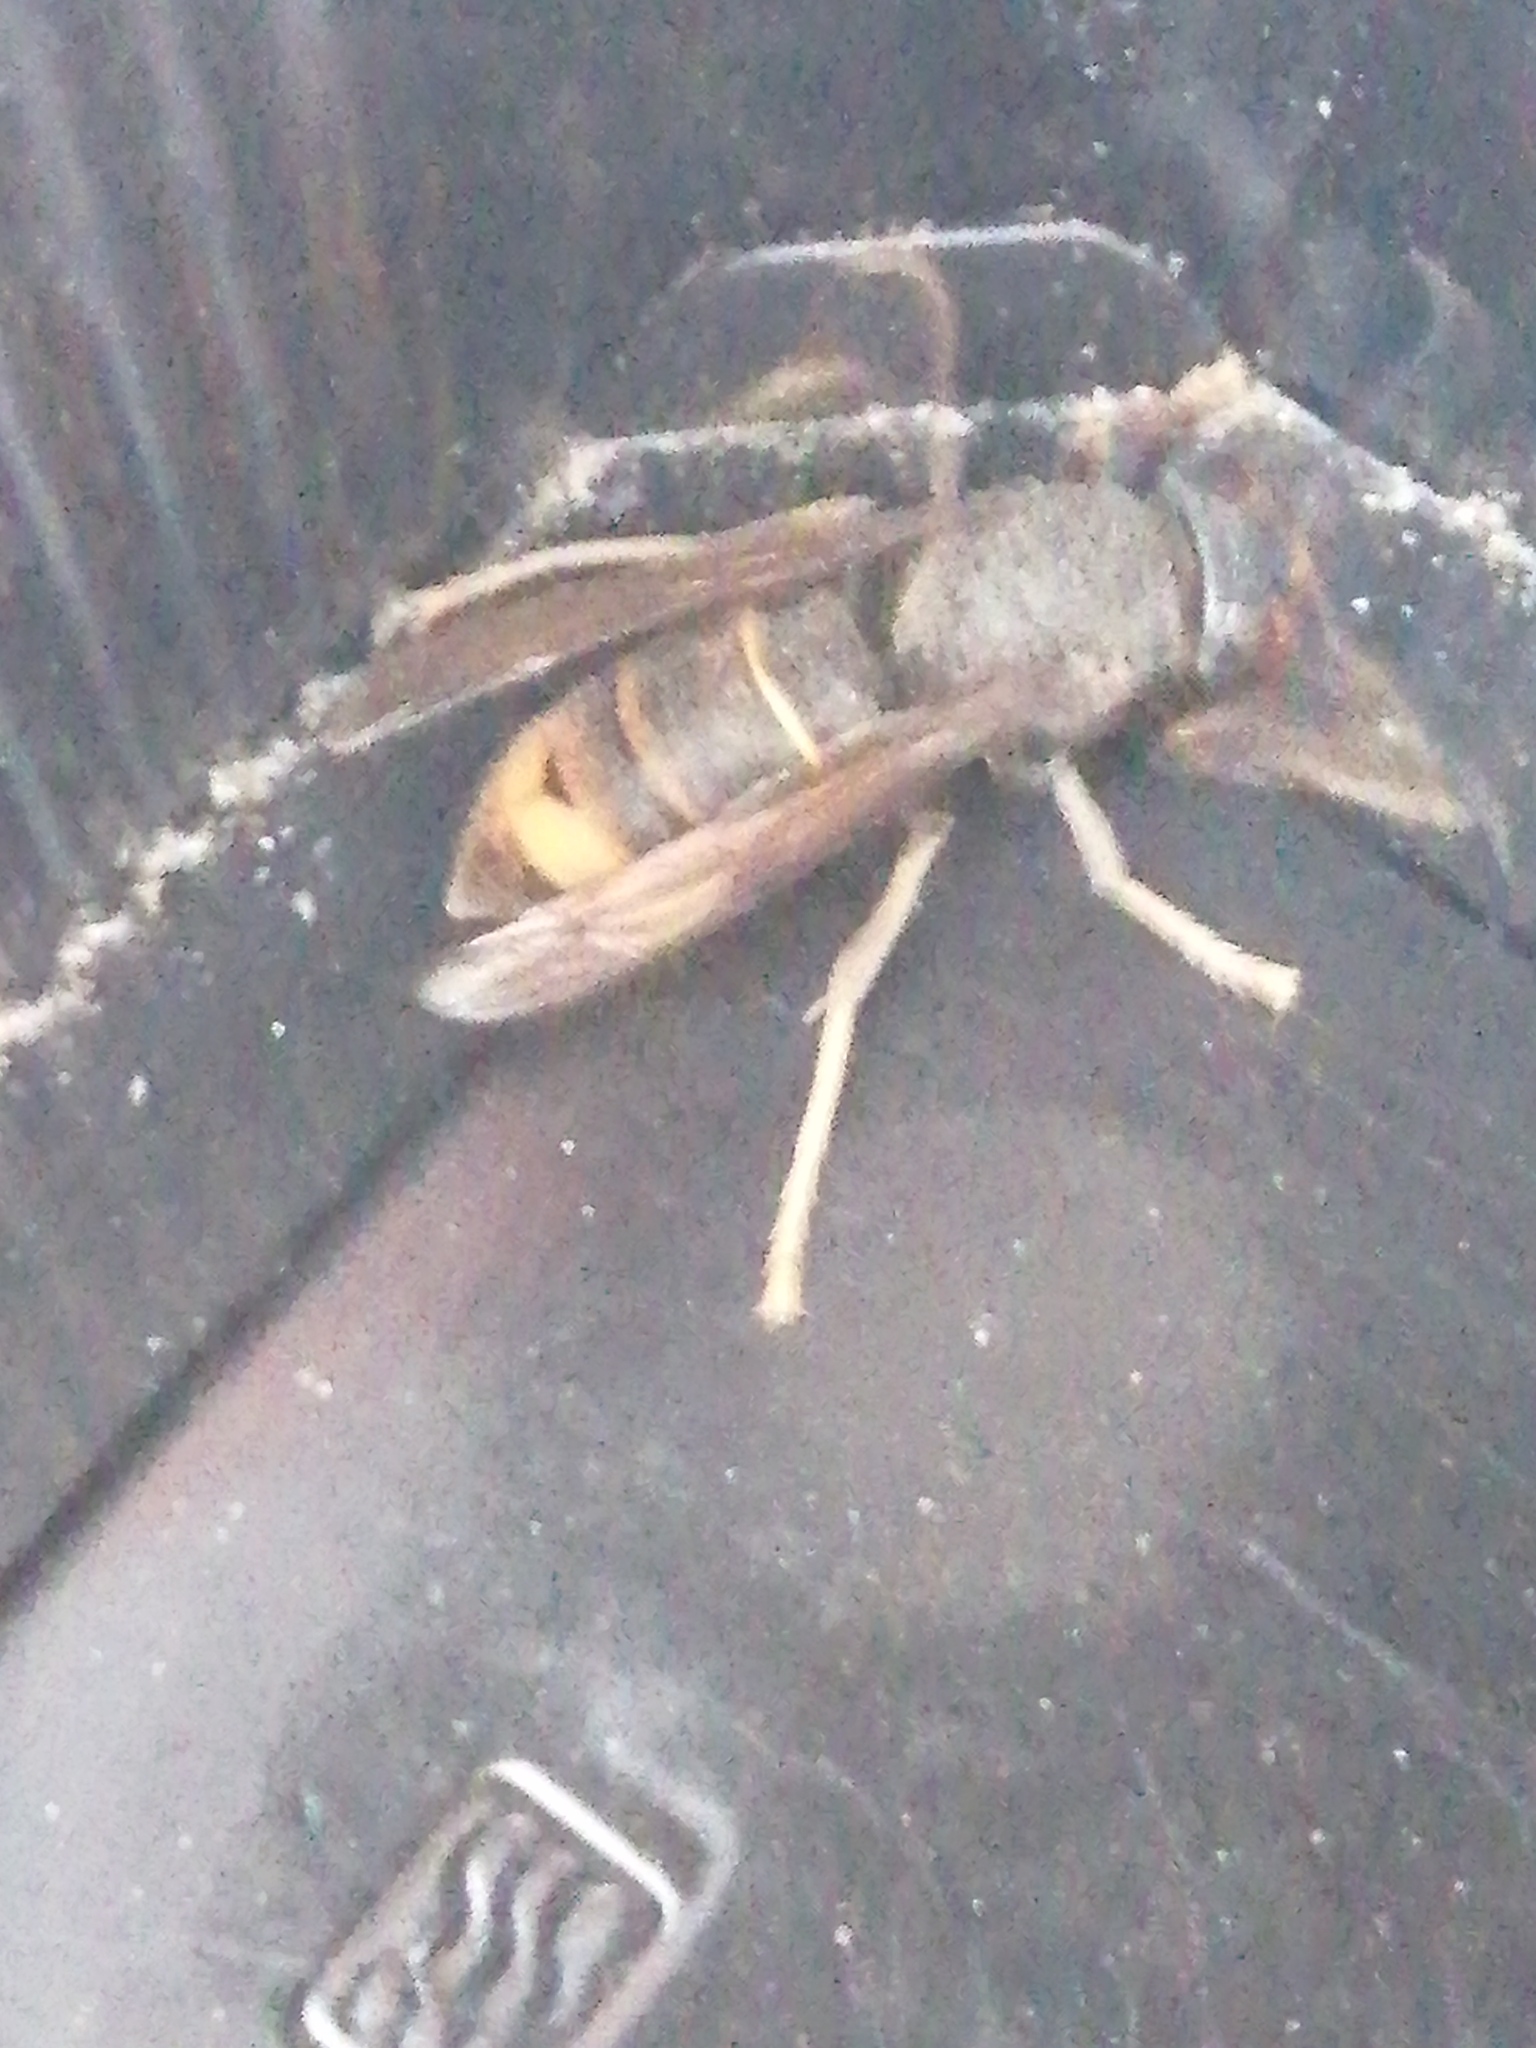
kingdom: Animalia
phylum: Arthropoda
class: Insecta
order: Hymenoptera
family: Vespidae
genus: Vespa
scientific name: Vespa velutina
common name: Asian hornet
